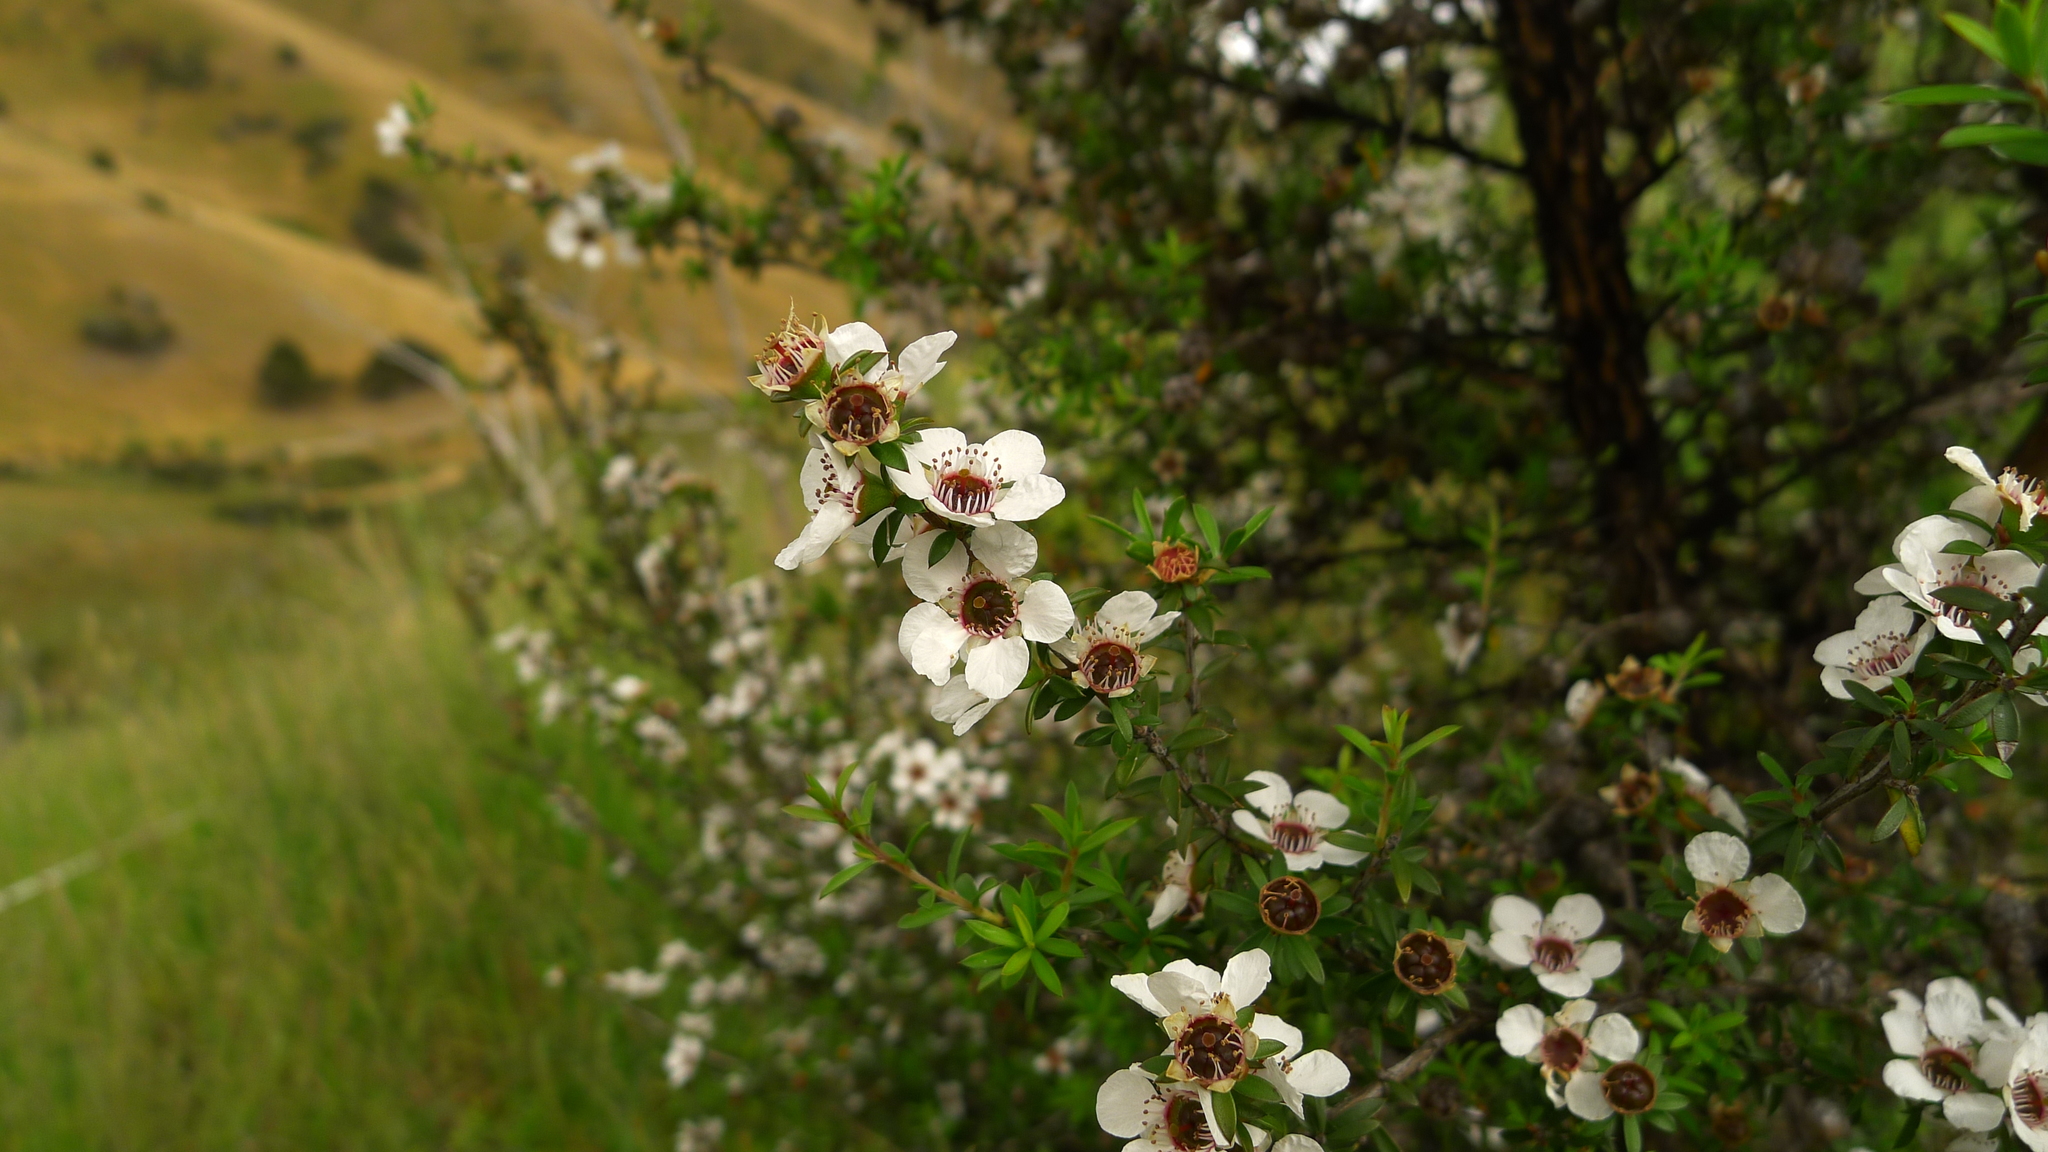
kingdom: Plantae
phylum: Tracheophyta
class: Magnoliopsida
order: Myrtales
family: Myrtaceae
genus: Leptospermum
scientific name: Leptospermum scoparium
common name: Broom tea-tree
